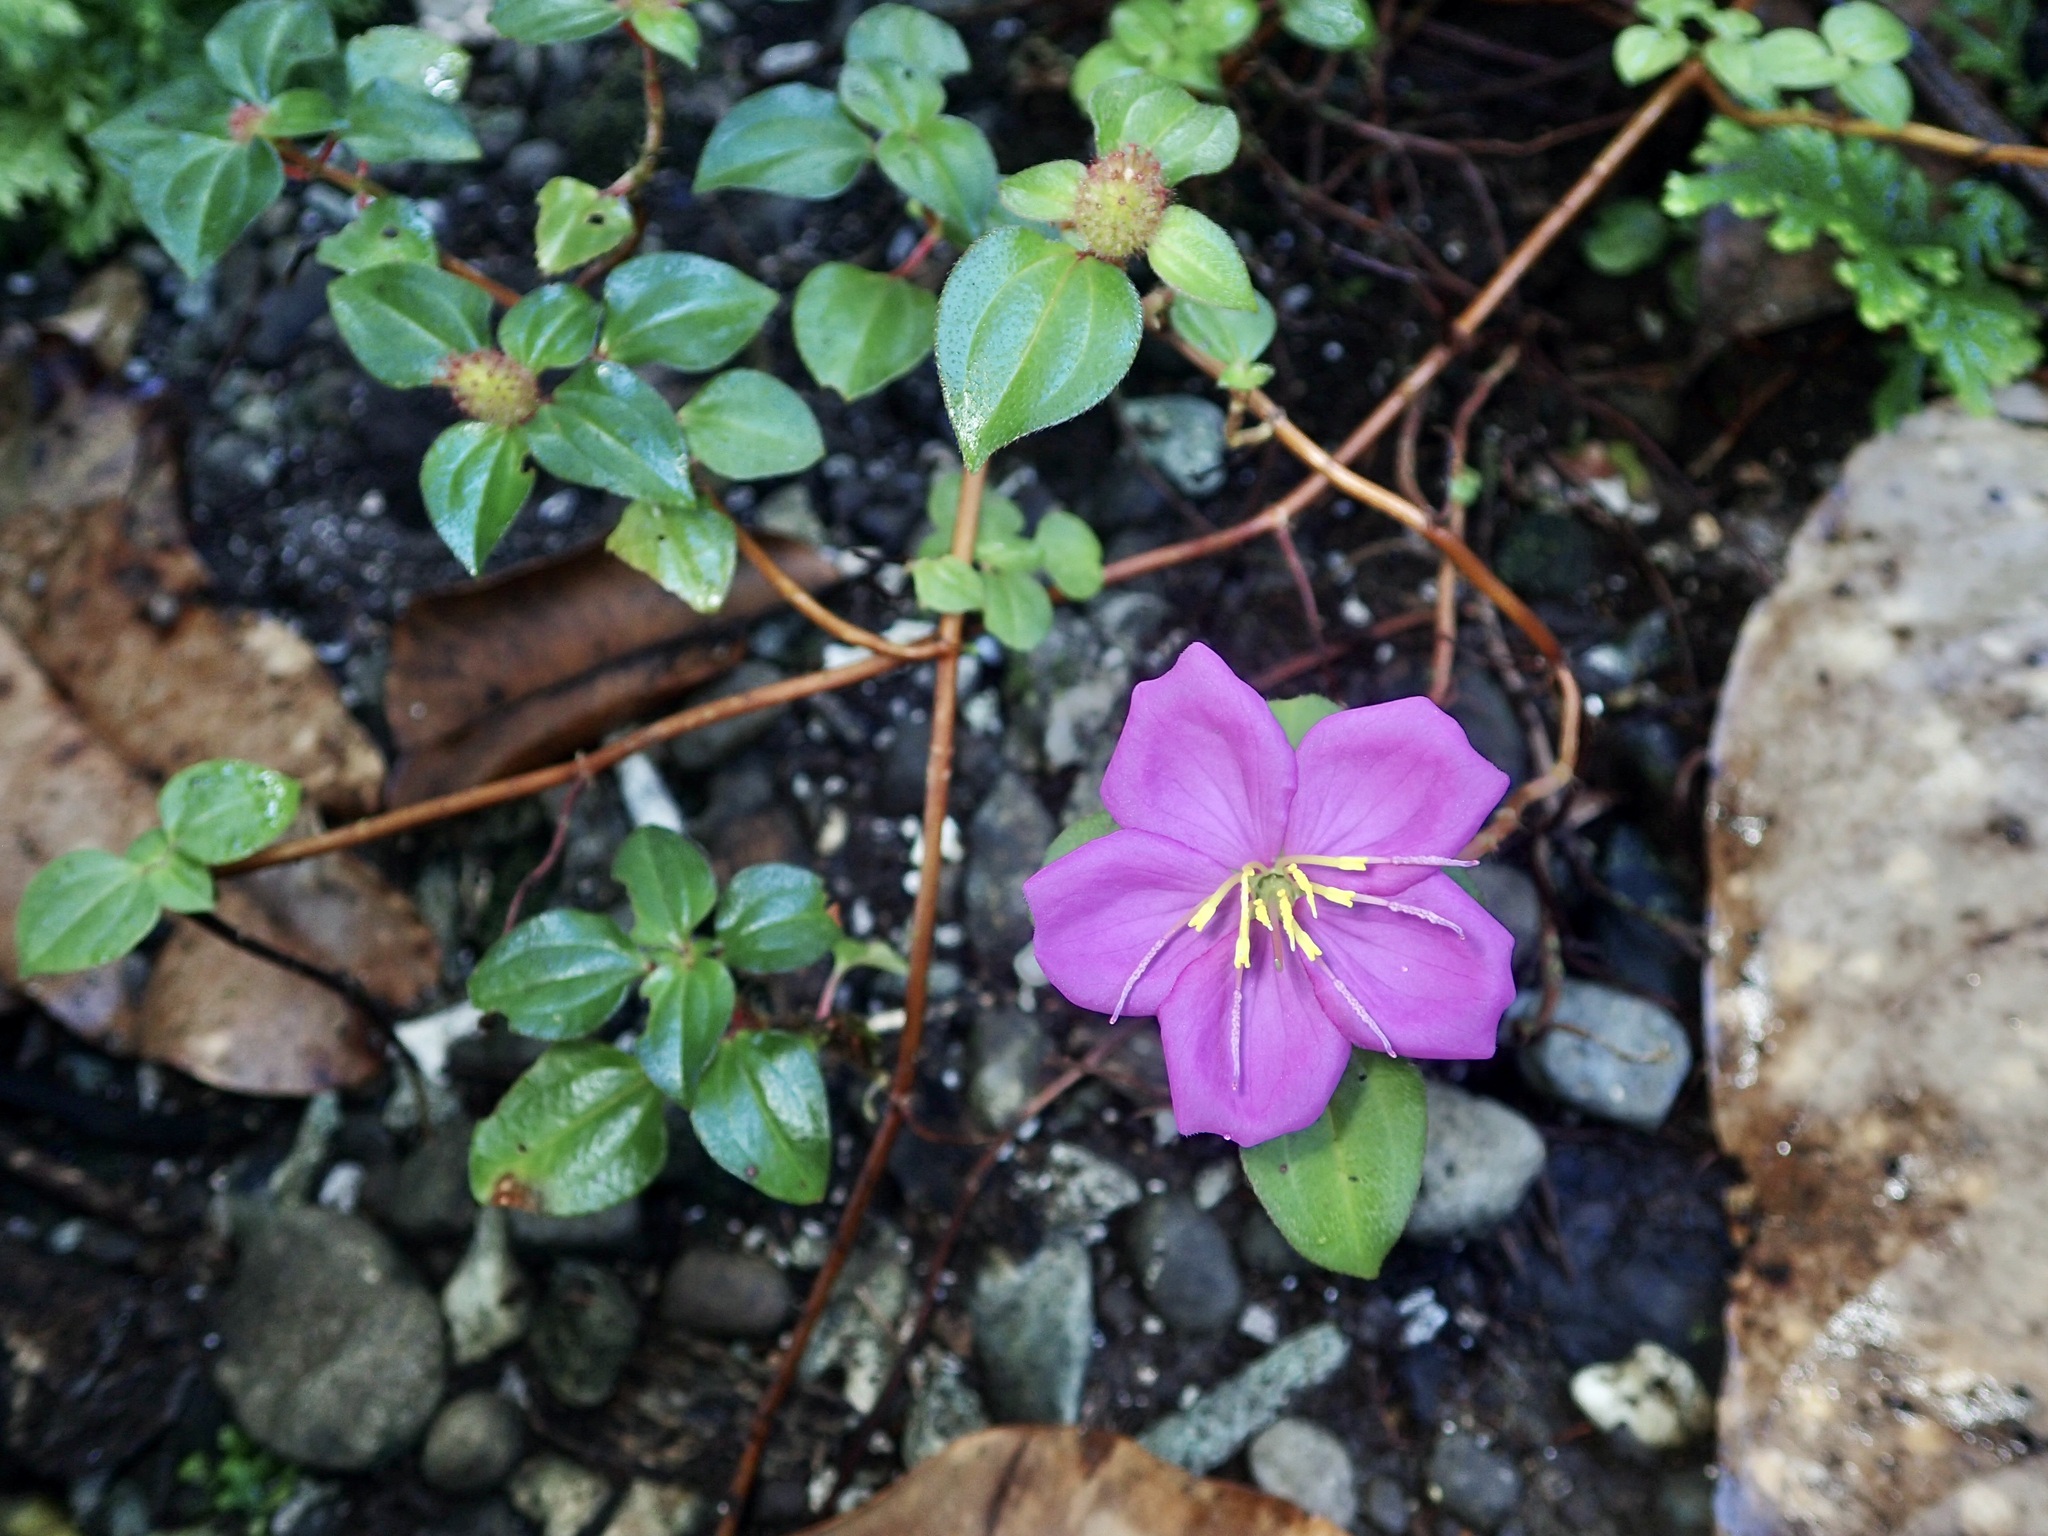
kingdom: Plantae
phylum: Tracheophyta
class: Magnoliopsida
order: Myrtales
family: Melastomataceae
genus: Heterotis
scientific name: Heterotis rotundifolia
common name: Pinklady
